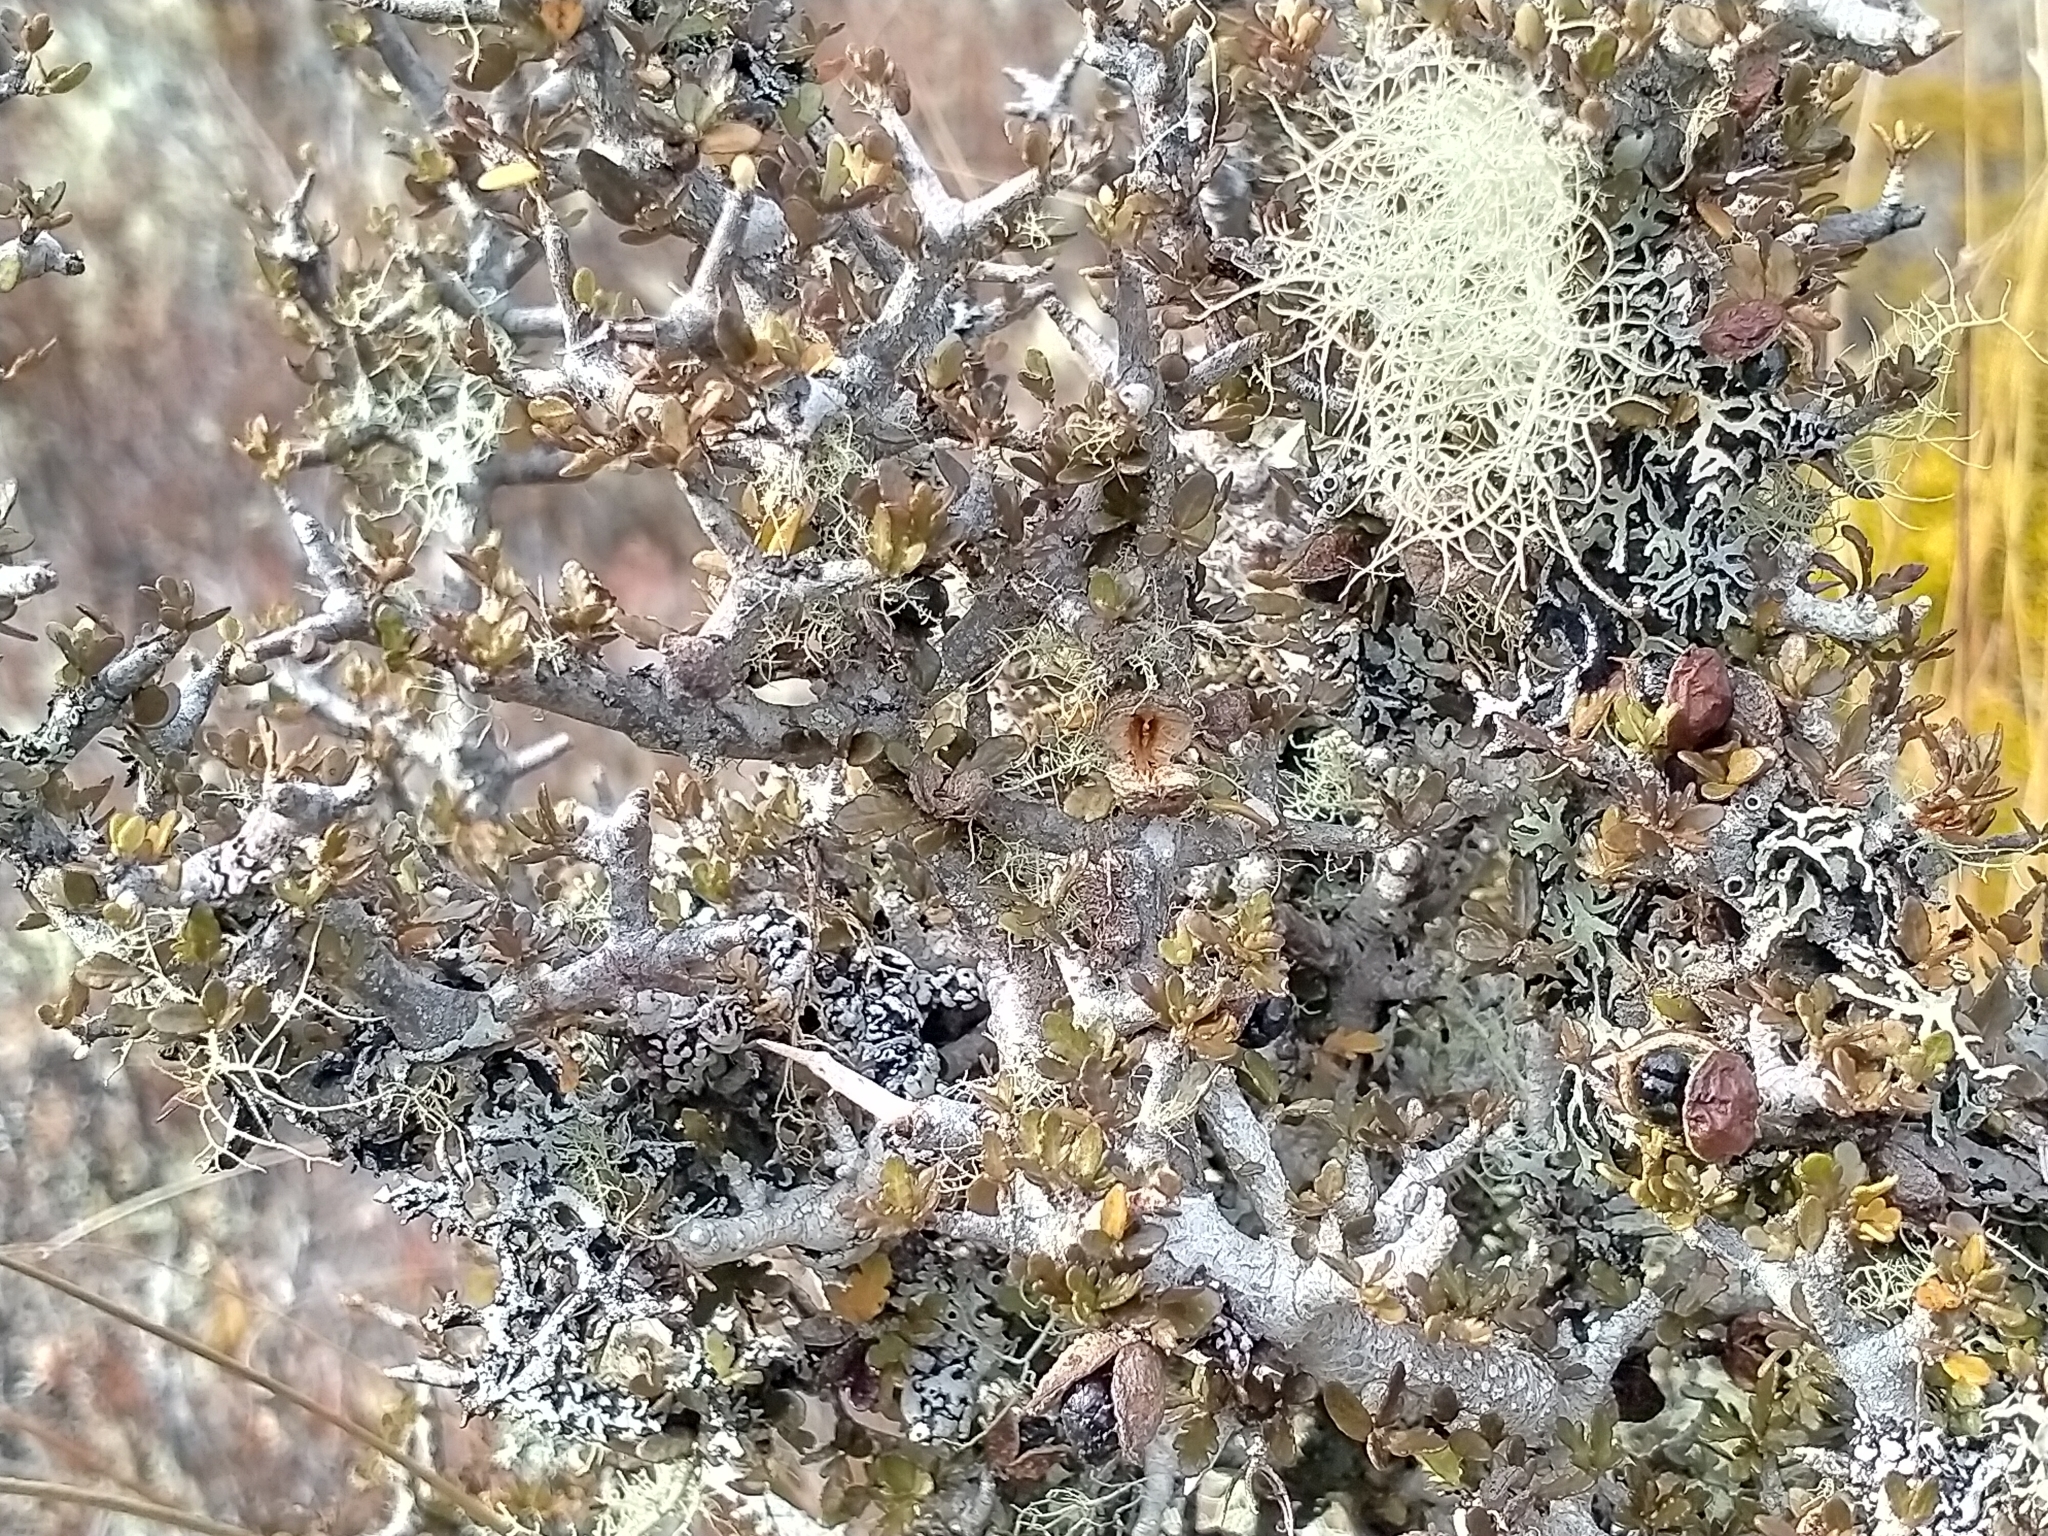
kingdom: Plantae
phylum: Tracheophyta
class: Magnoliopsida
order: Apiales
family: Pittosporaceae
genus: Pittosporum
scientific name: Pittosporum rigidum
